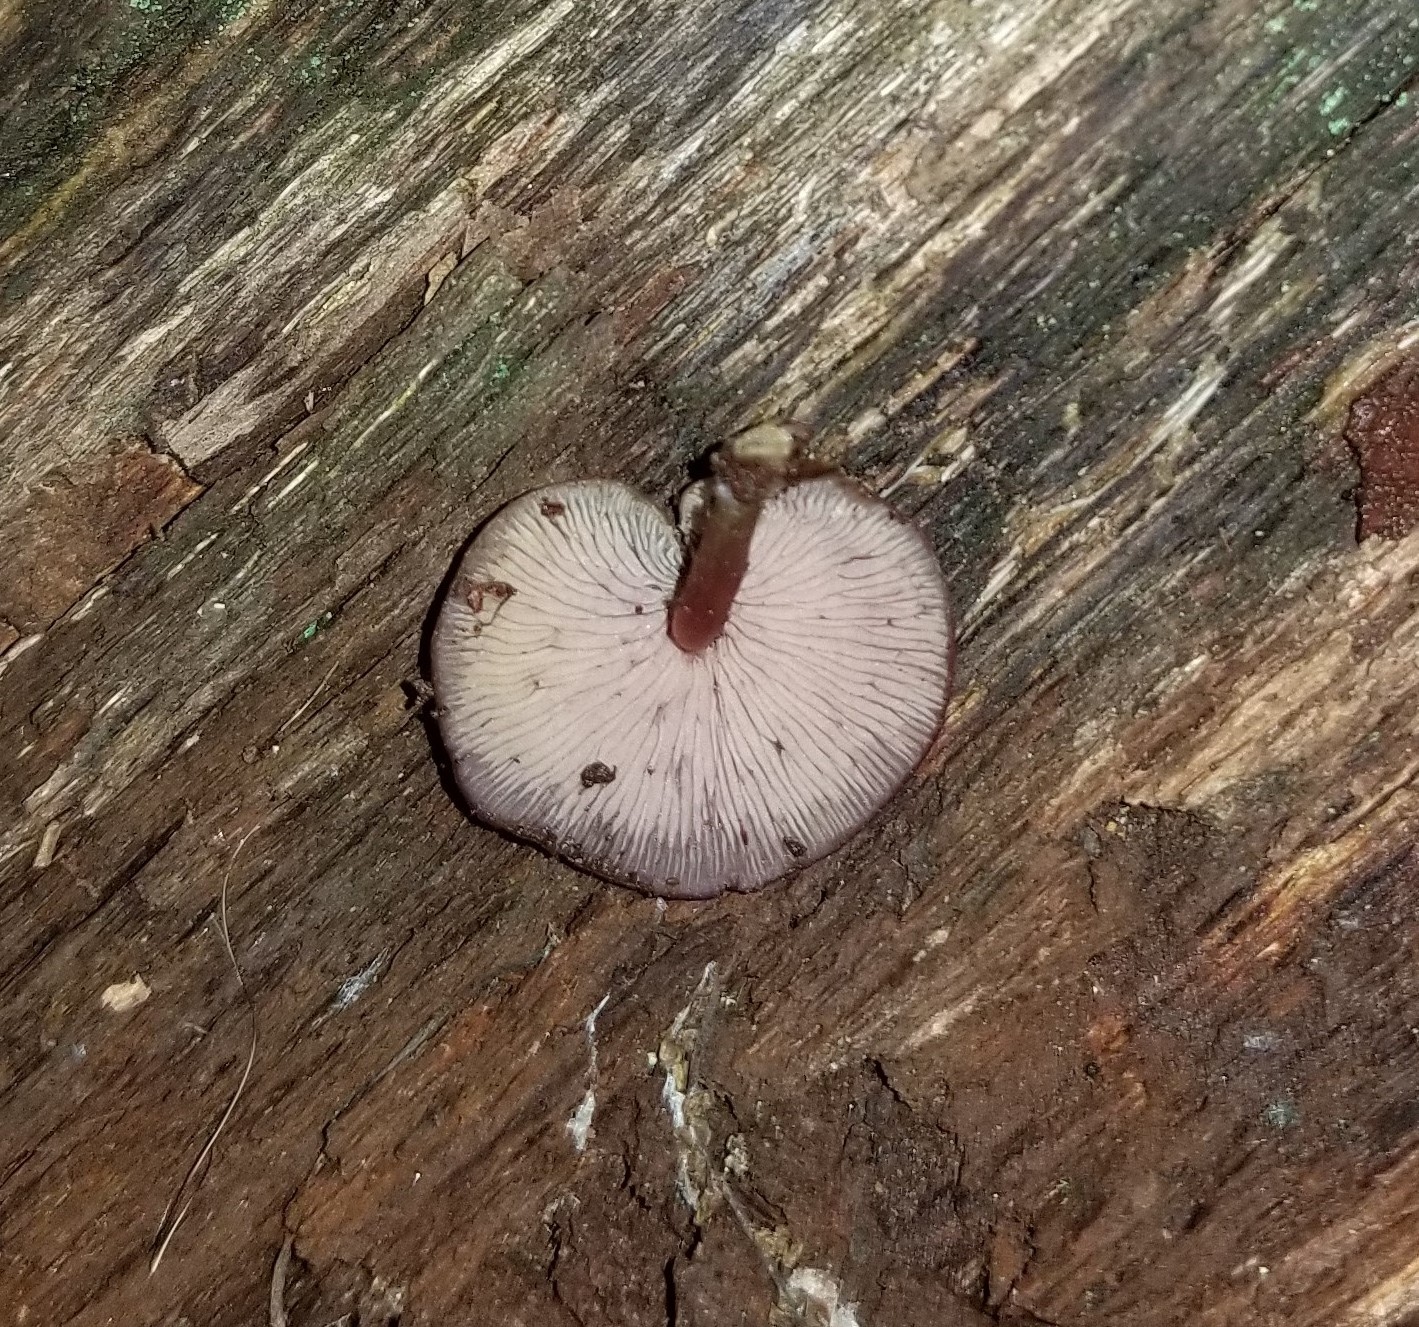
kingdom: Fungi
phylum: Basidiomycota
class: Agaricomycetes
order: Agaricales
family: Callistosporiaceae
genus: Callistosporium
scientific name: Callistosporium purpureomarginatum
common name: Purple-edged lute
